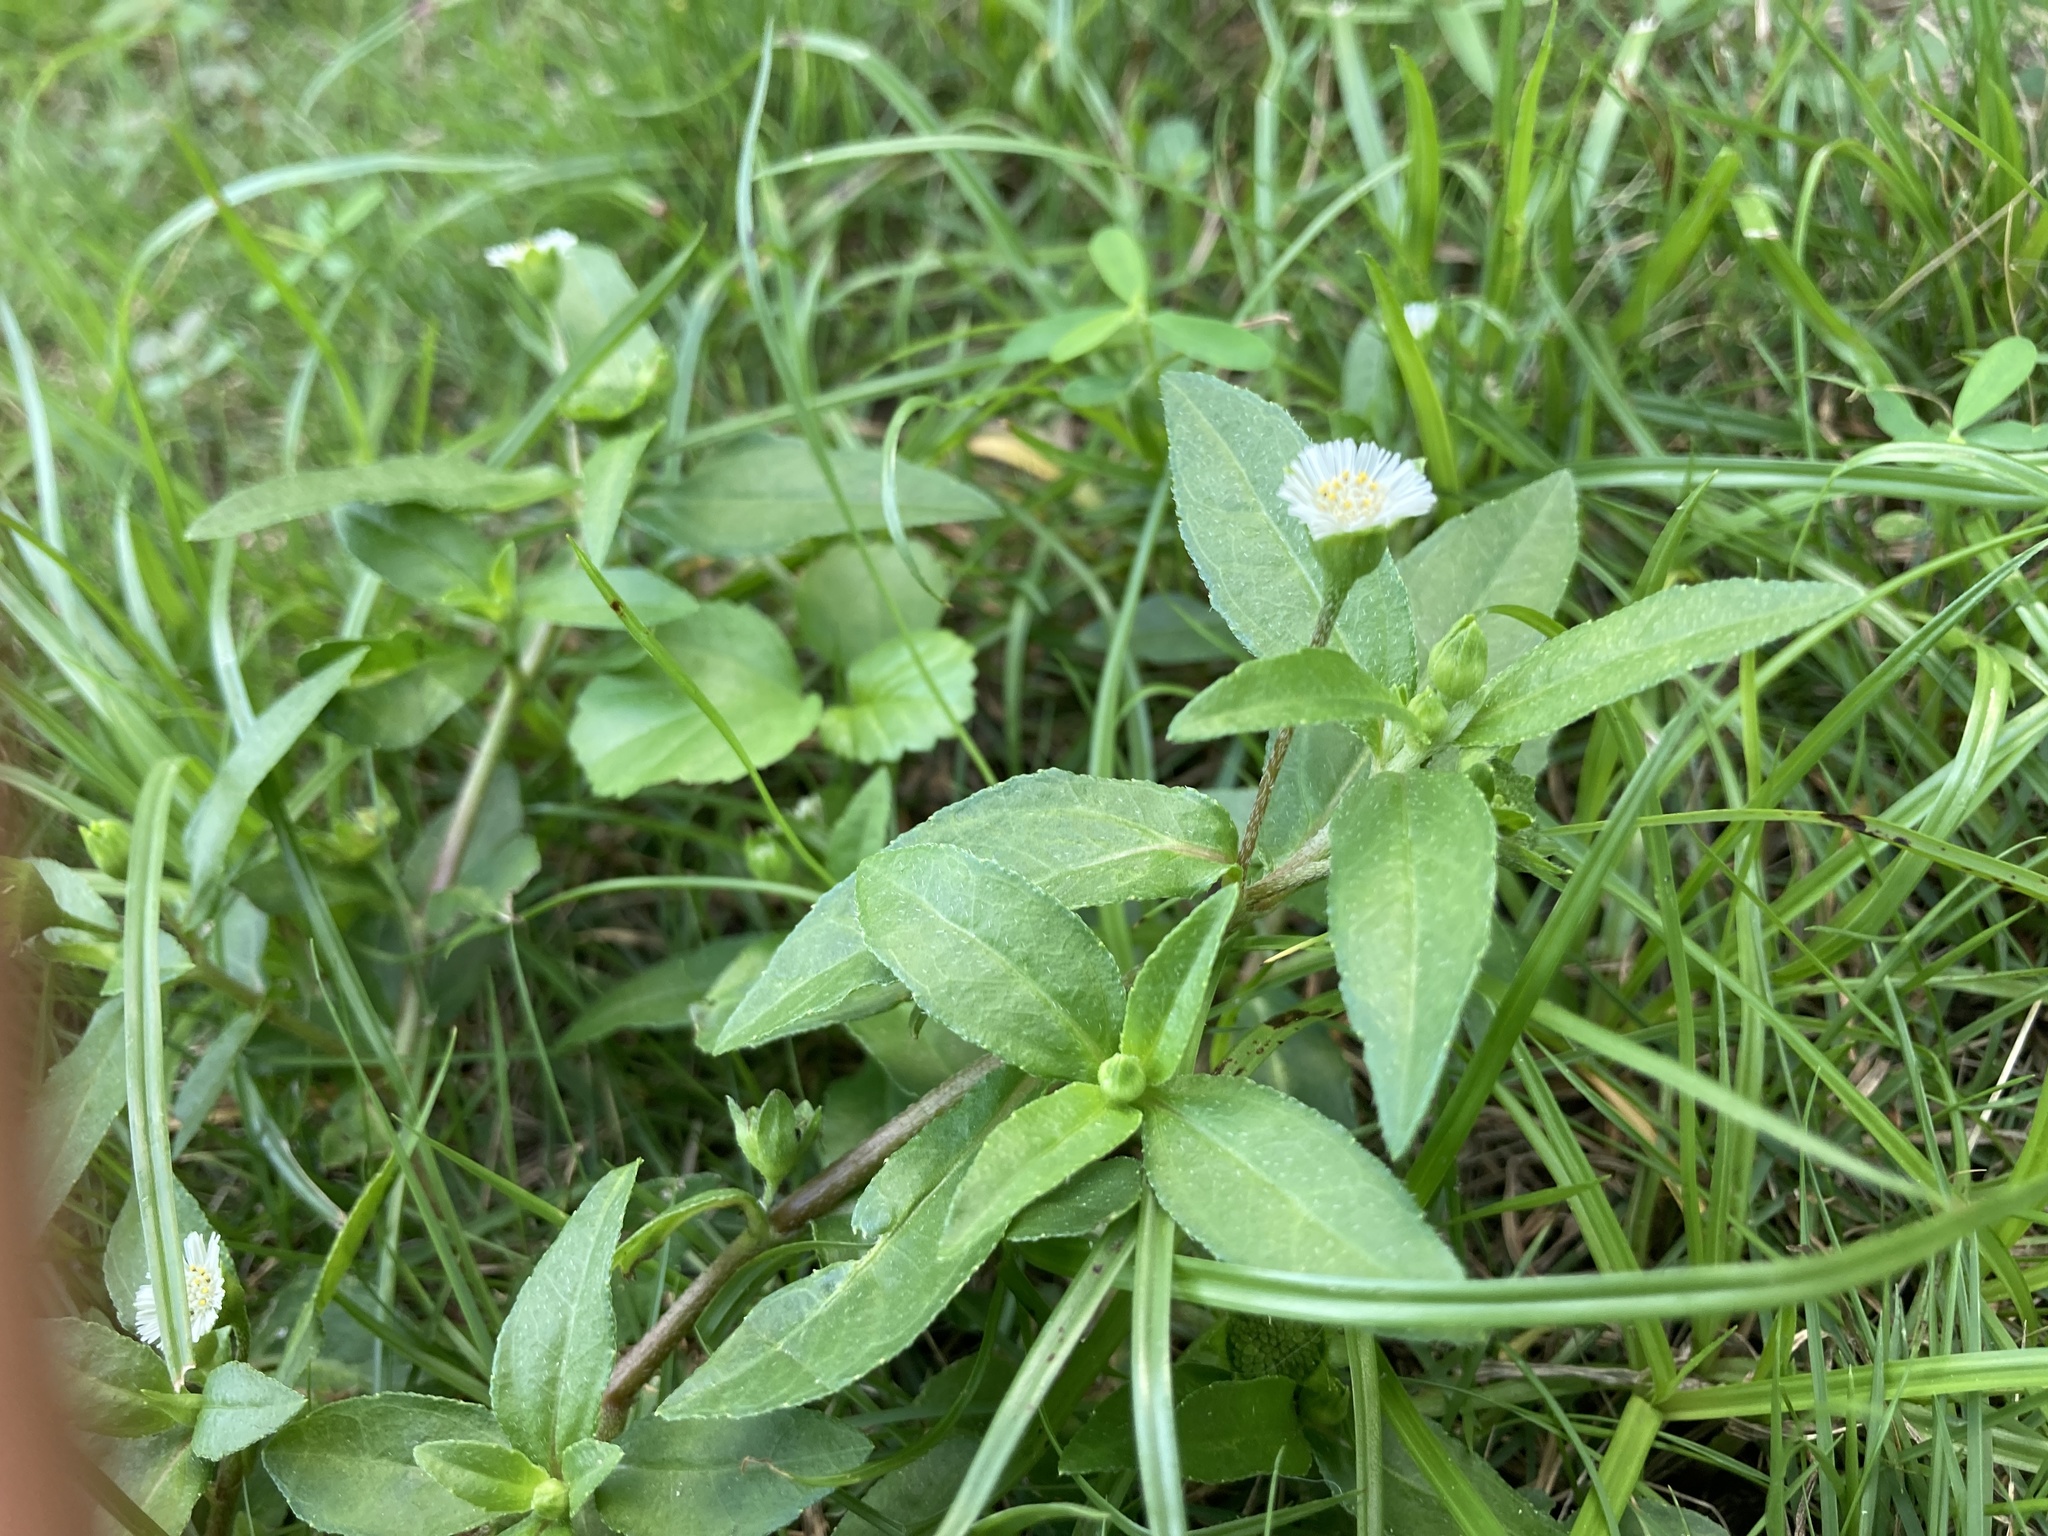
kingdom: Plantae
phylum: Tracheophyta
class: Magnoliopsida
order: Asterales
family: Asteraceae
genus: Eclipta
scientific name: Eclipta prostrata
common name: False daisy
